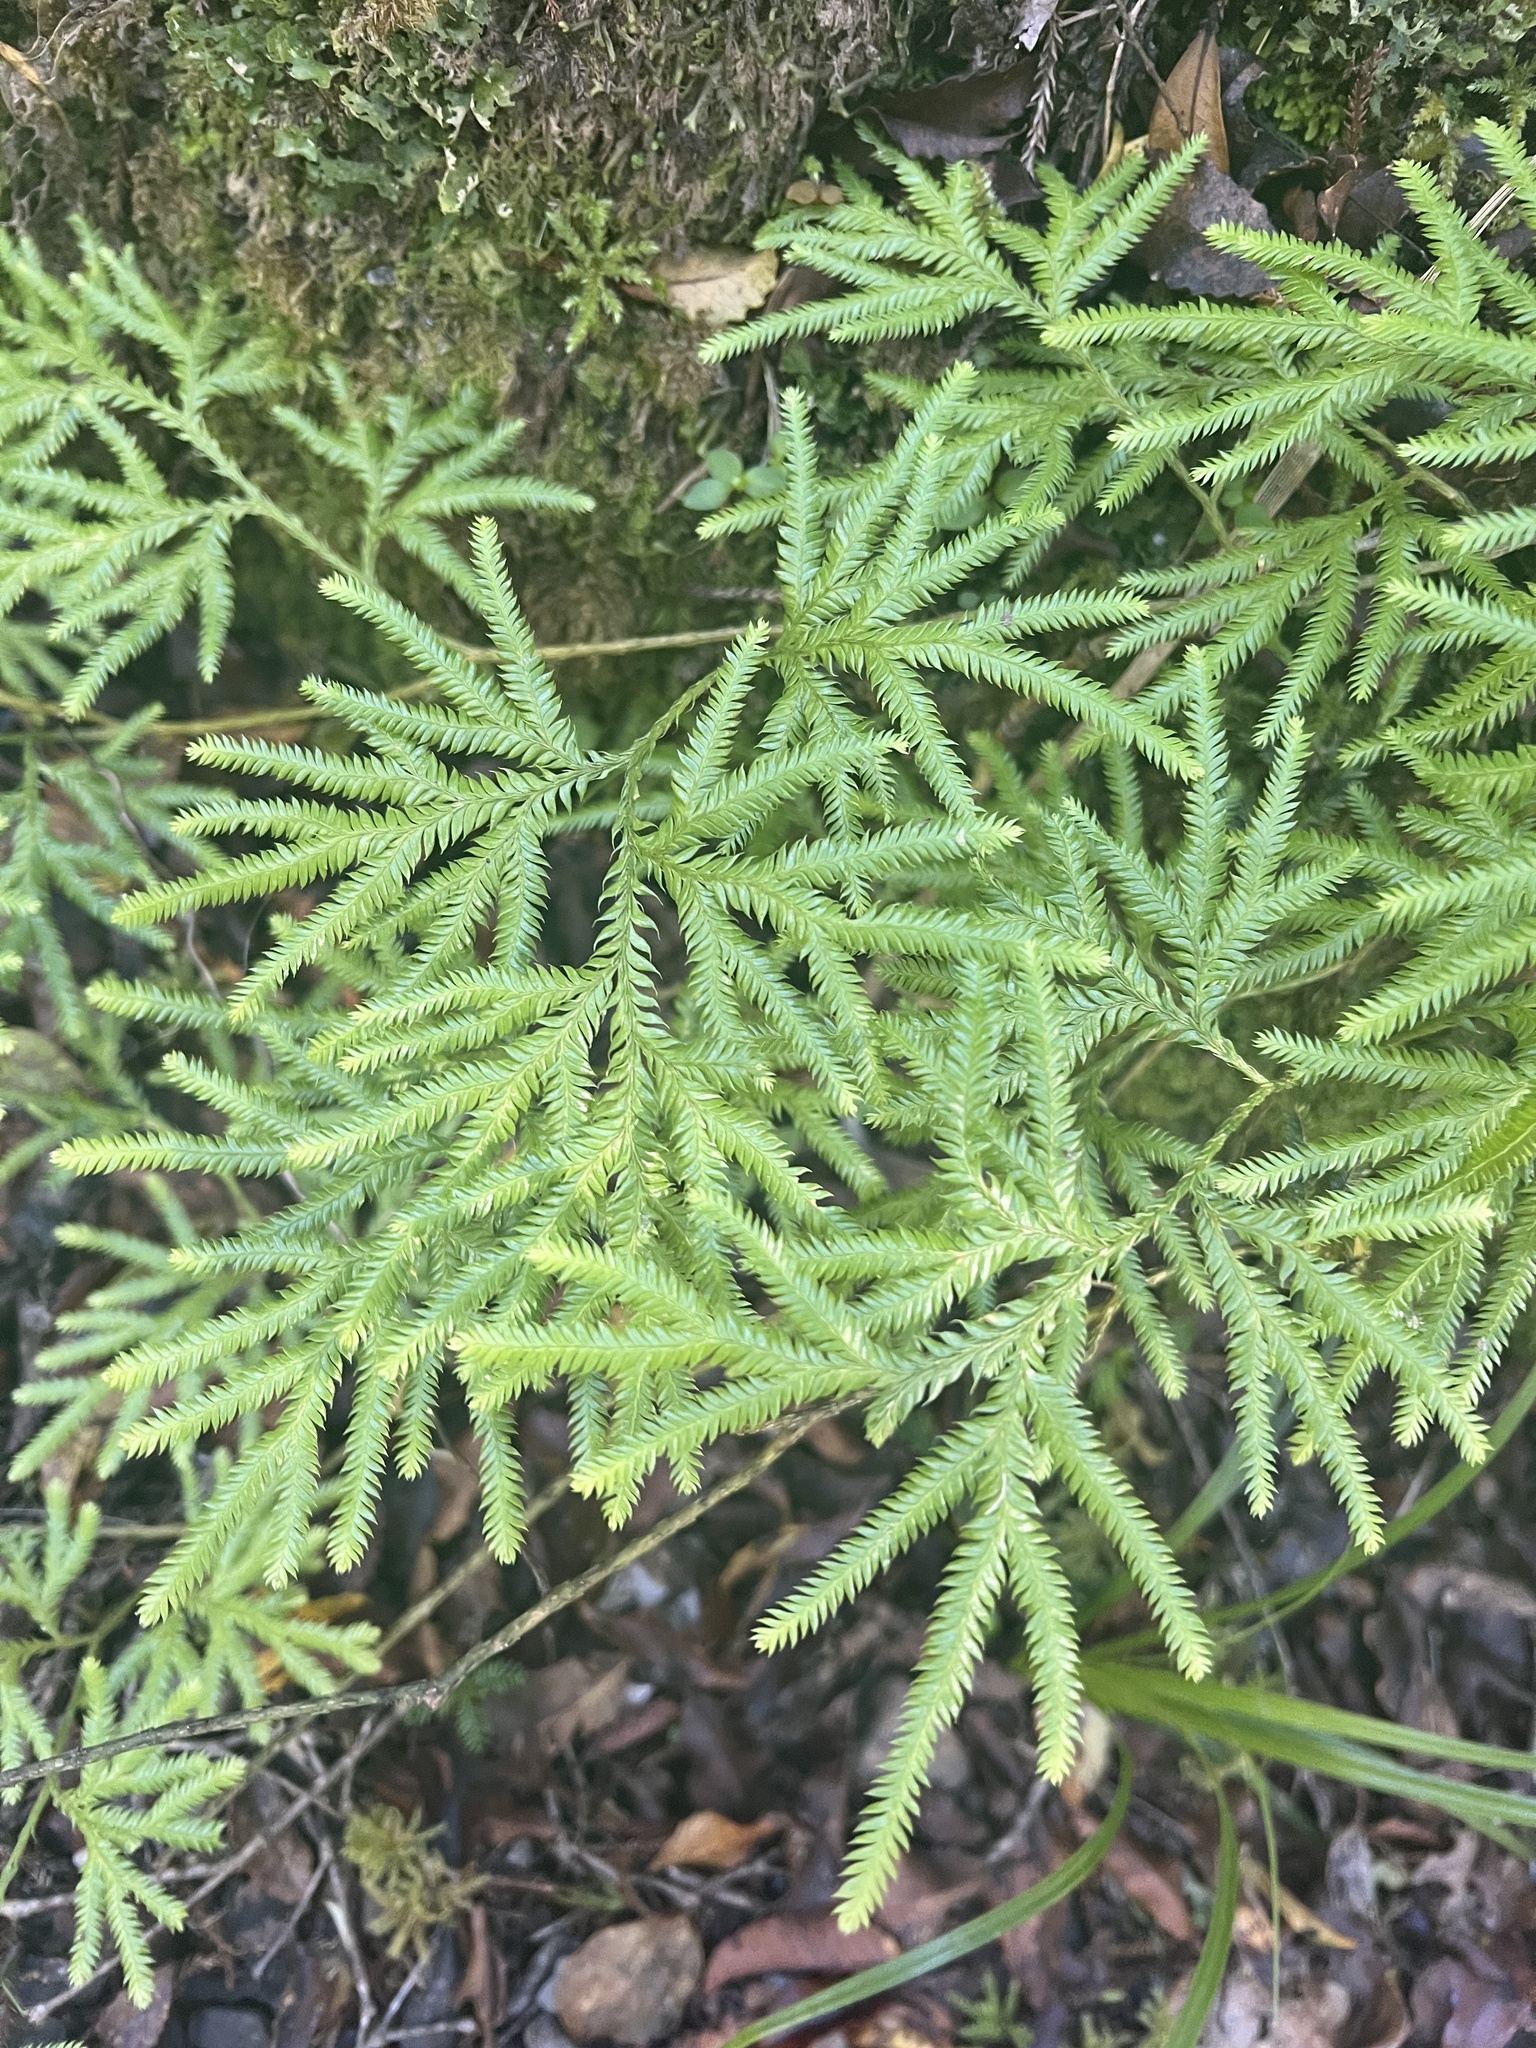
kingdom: Plantae
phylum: Tracheophyta
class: Lycopodiopsida
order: Lycopodiales
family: Lycopodiaceae
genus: Lycopodium
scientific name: Lycopodium volubile
